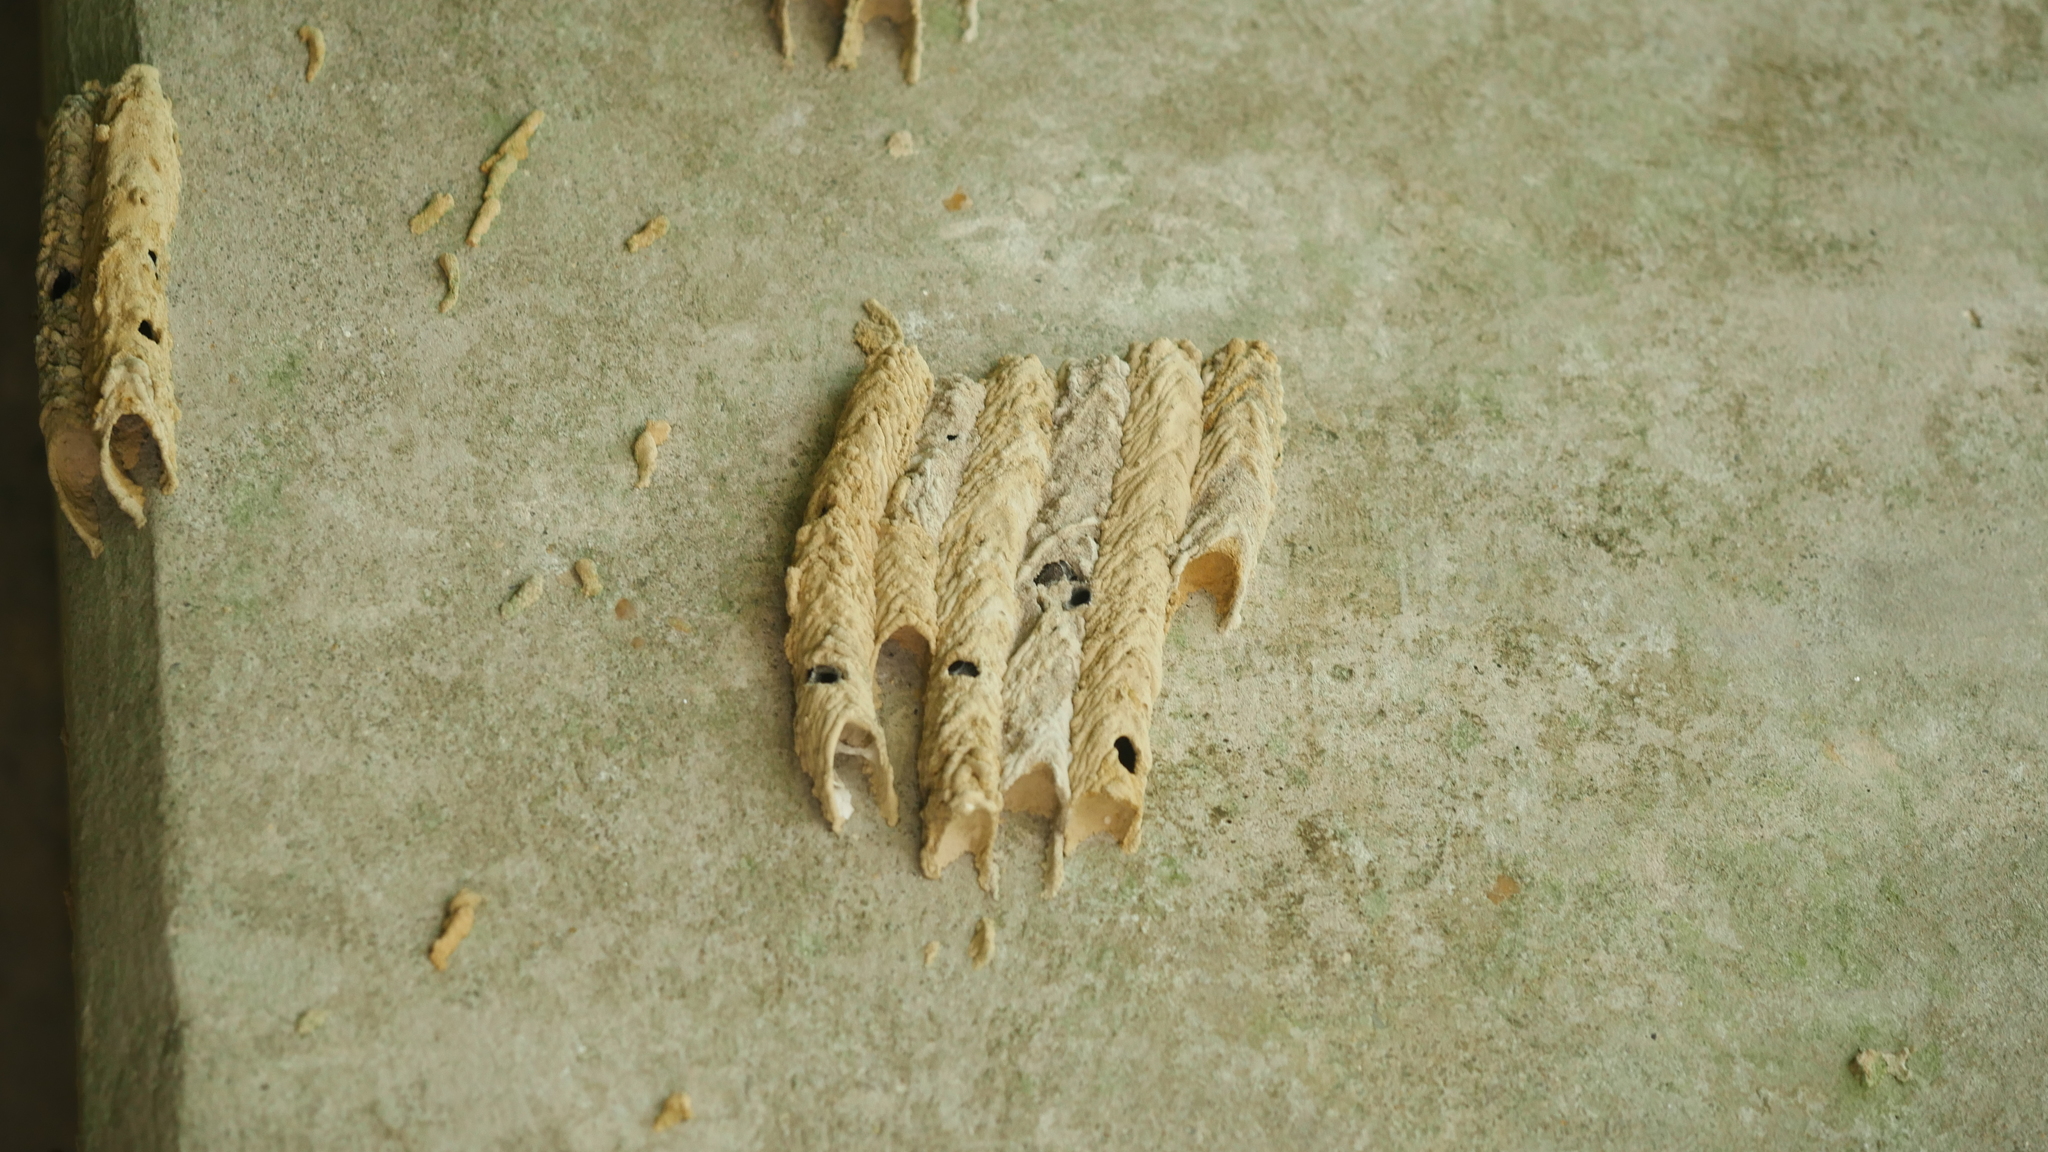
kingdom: Animalia
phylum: Arthropoda
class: Insecta
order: Hymenoptera
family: Crabronidae
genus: Trypoxylon
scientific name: Trypoxylon politum
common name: Organ-pipe mud-dauber wasp
